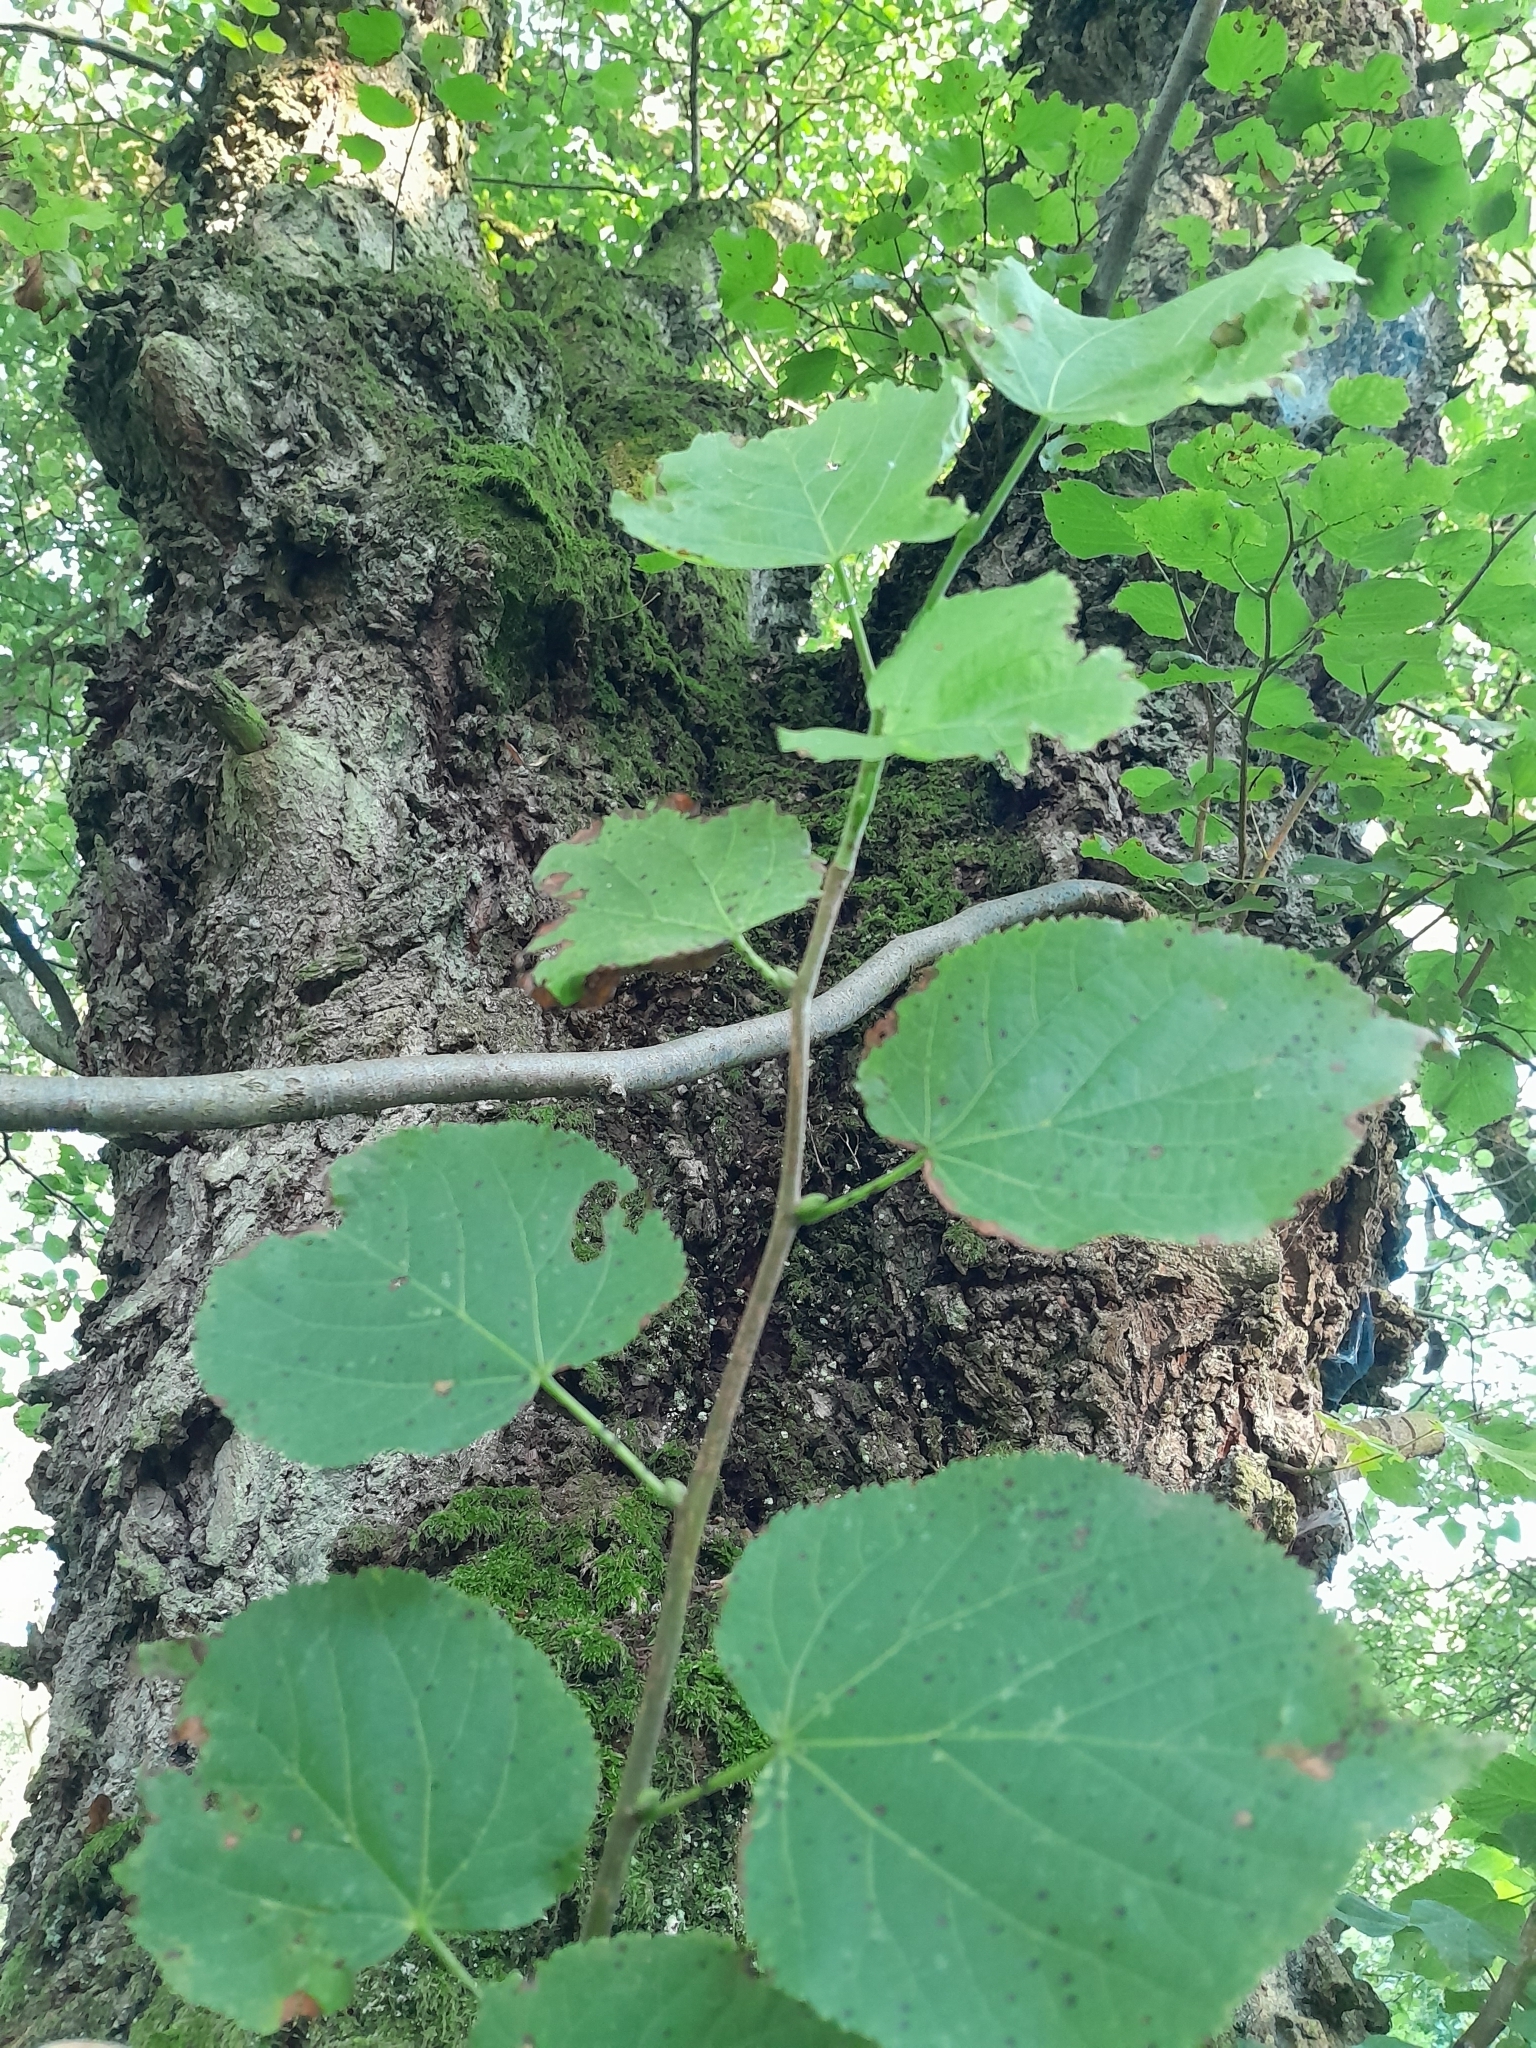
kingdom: Plantae
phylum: Tracheophyta
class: Magnoliopsida
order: Malvales
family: Malvaceae
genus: Tilia
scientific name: Tilia platyphyllos
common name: Large-leaved lime
